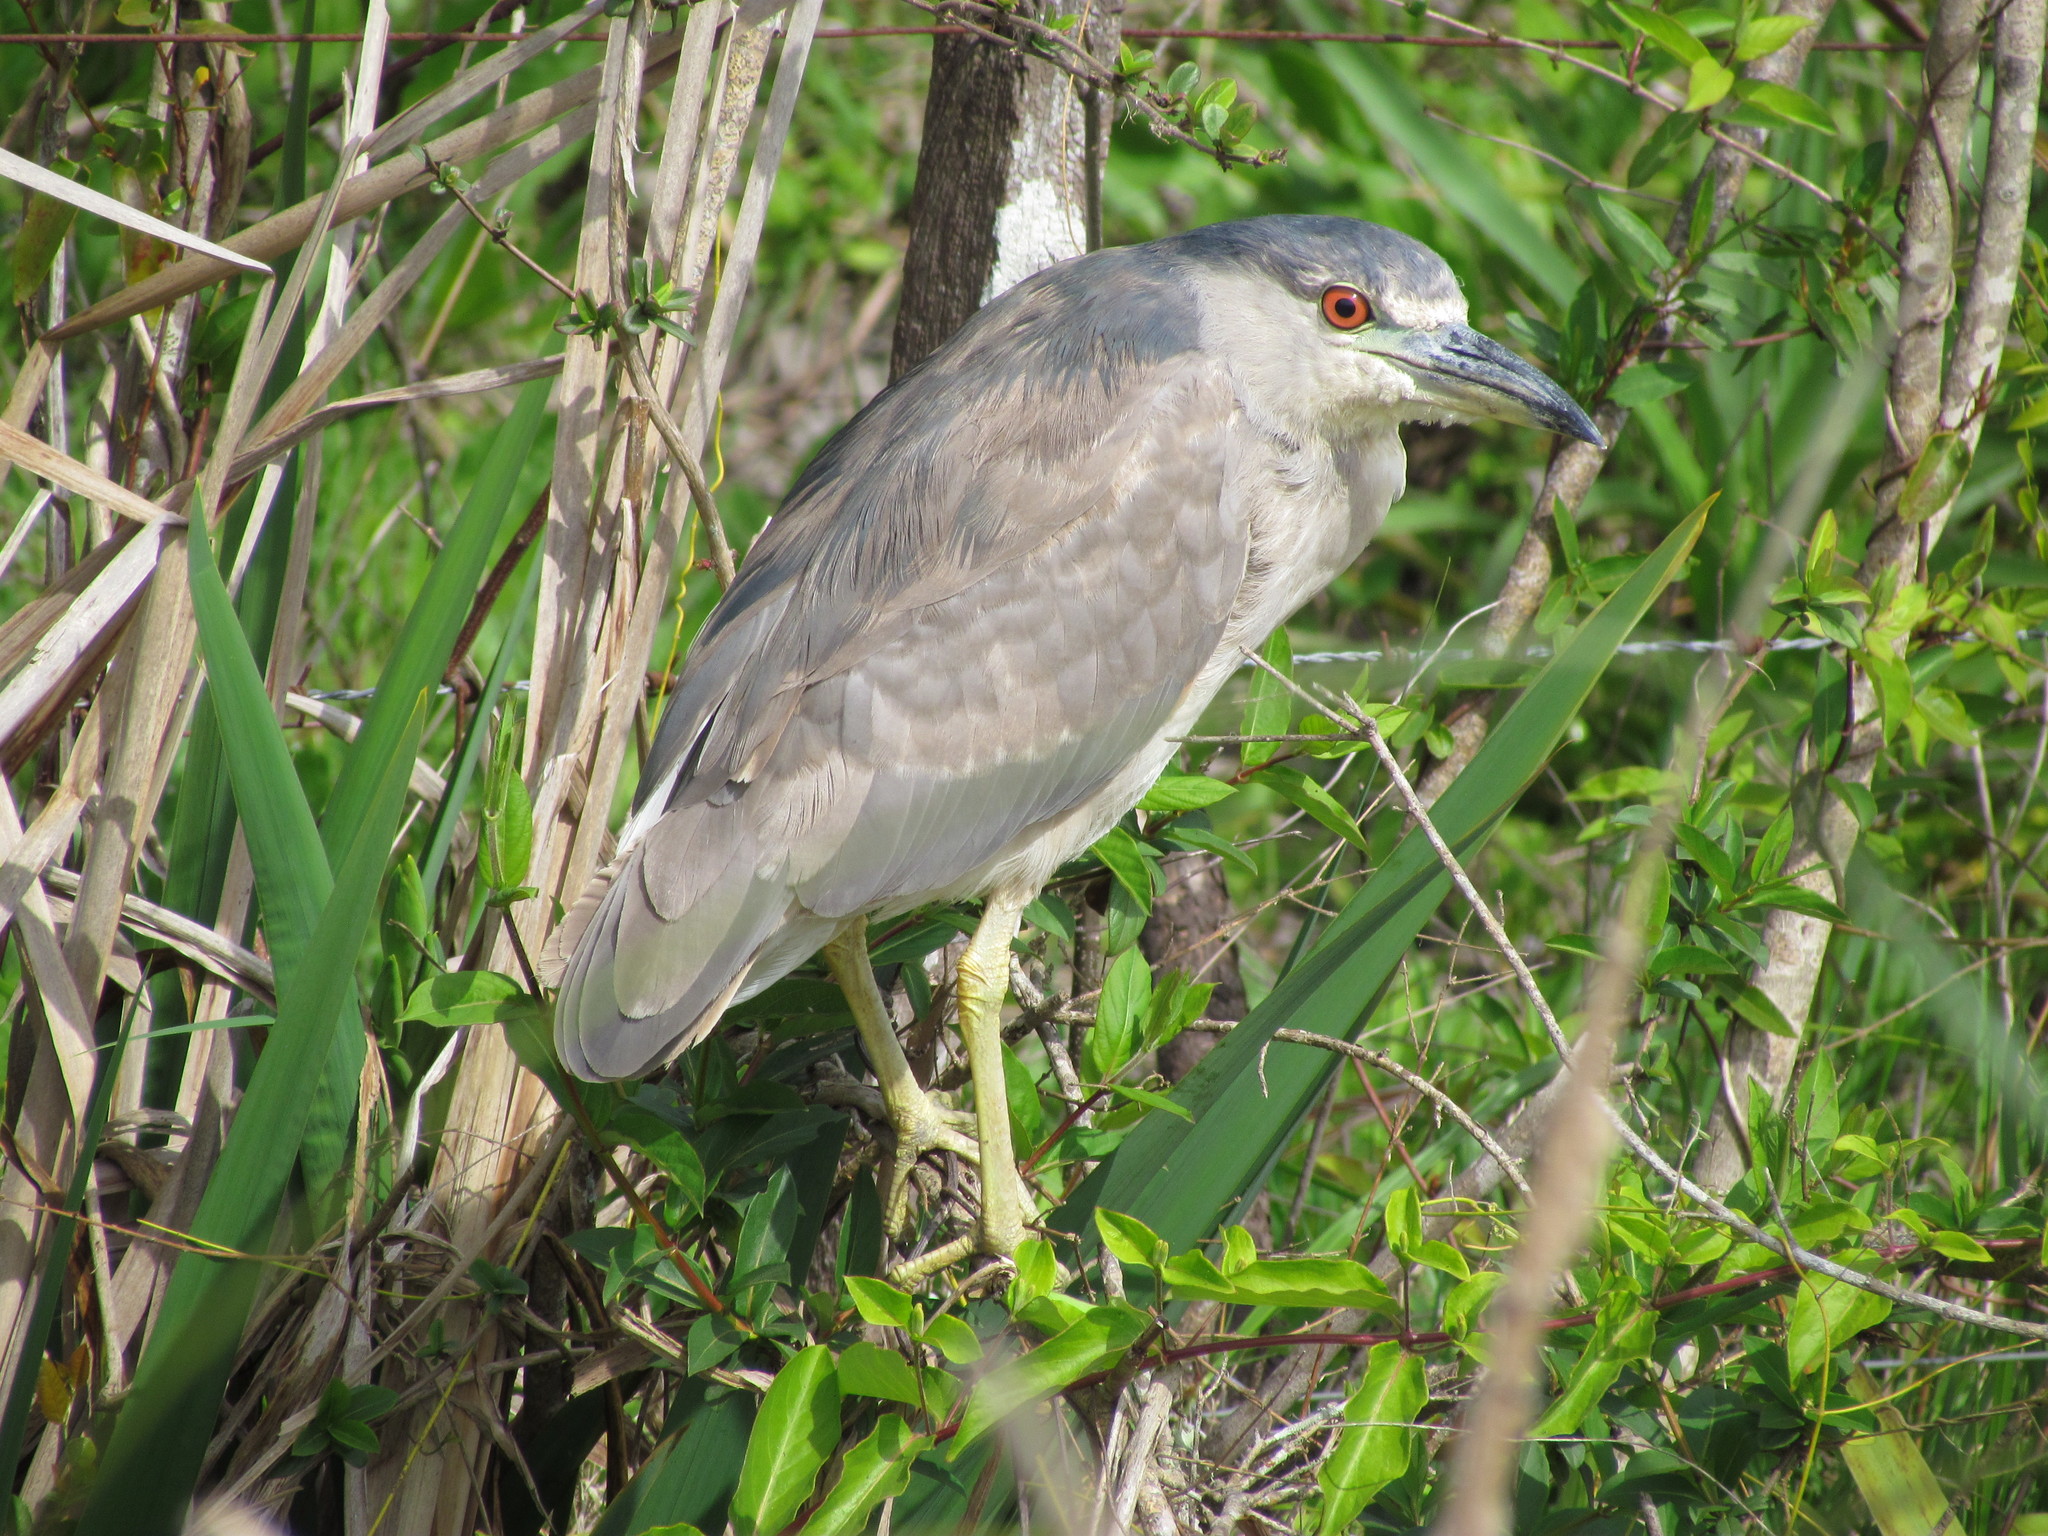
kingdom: Animalia
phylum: Chordata
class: Aves
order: Pelecaniformes
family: Ardeidae
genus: Nycticorax
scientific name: Nycticorax nycticorax
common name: Black-crowned night heron
